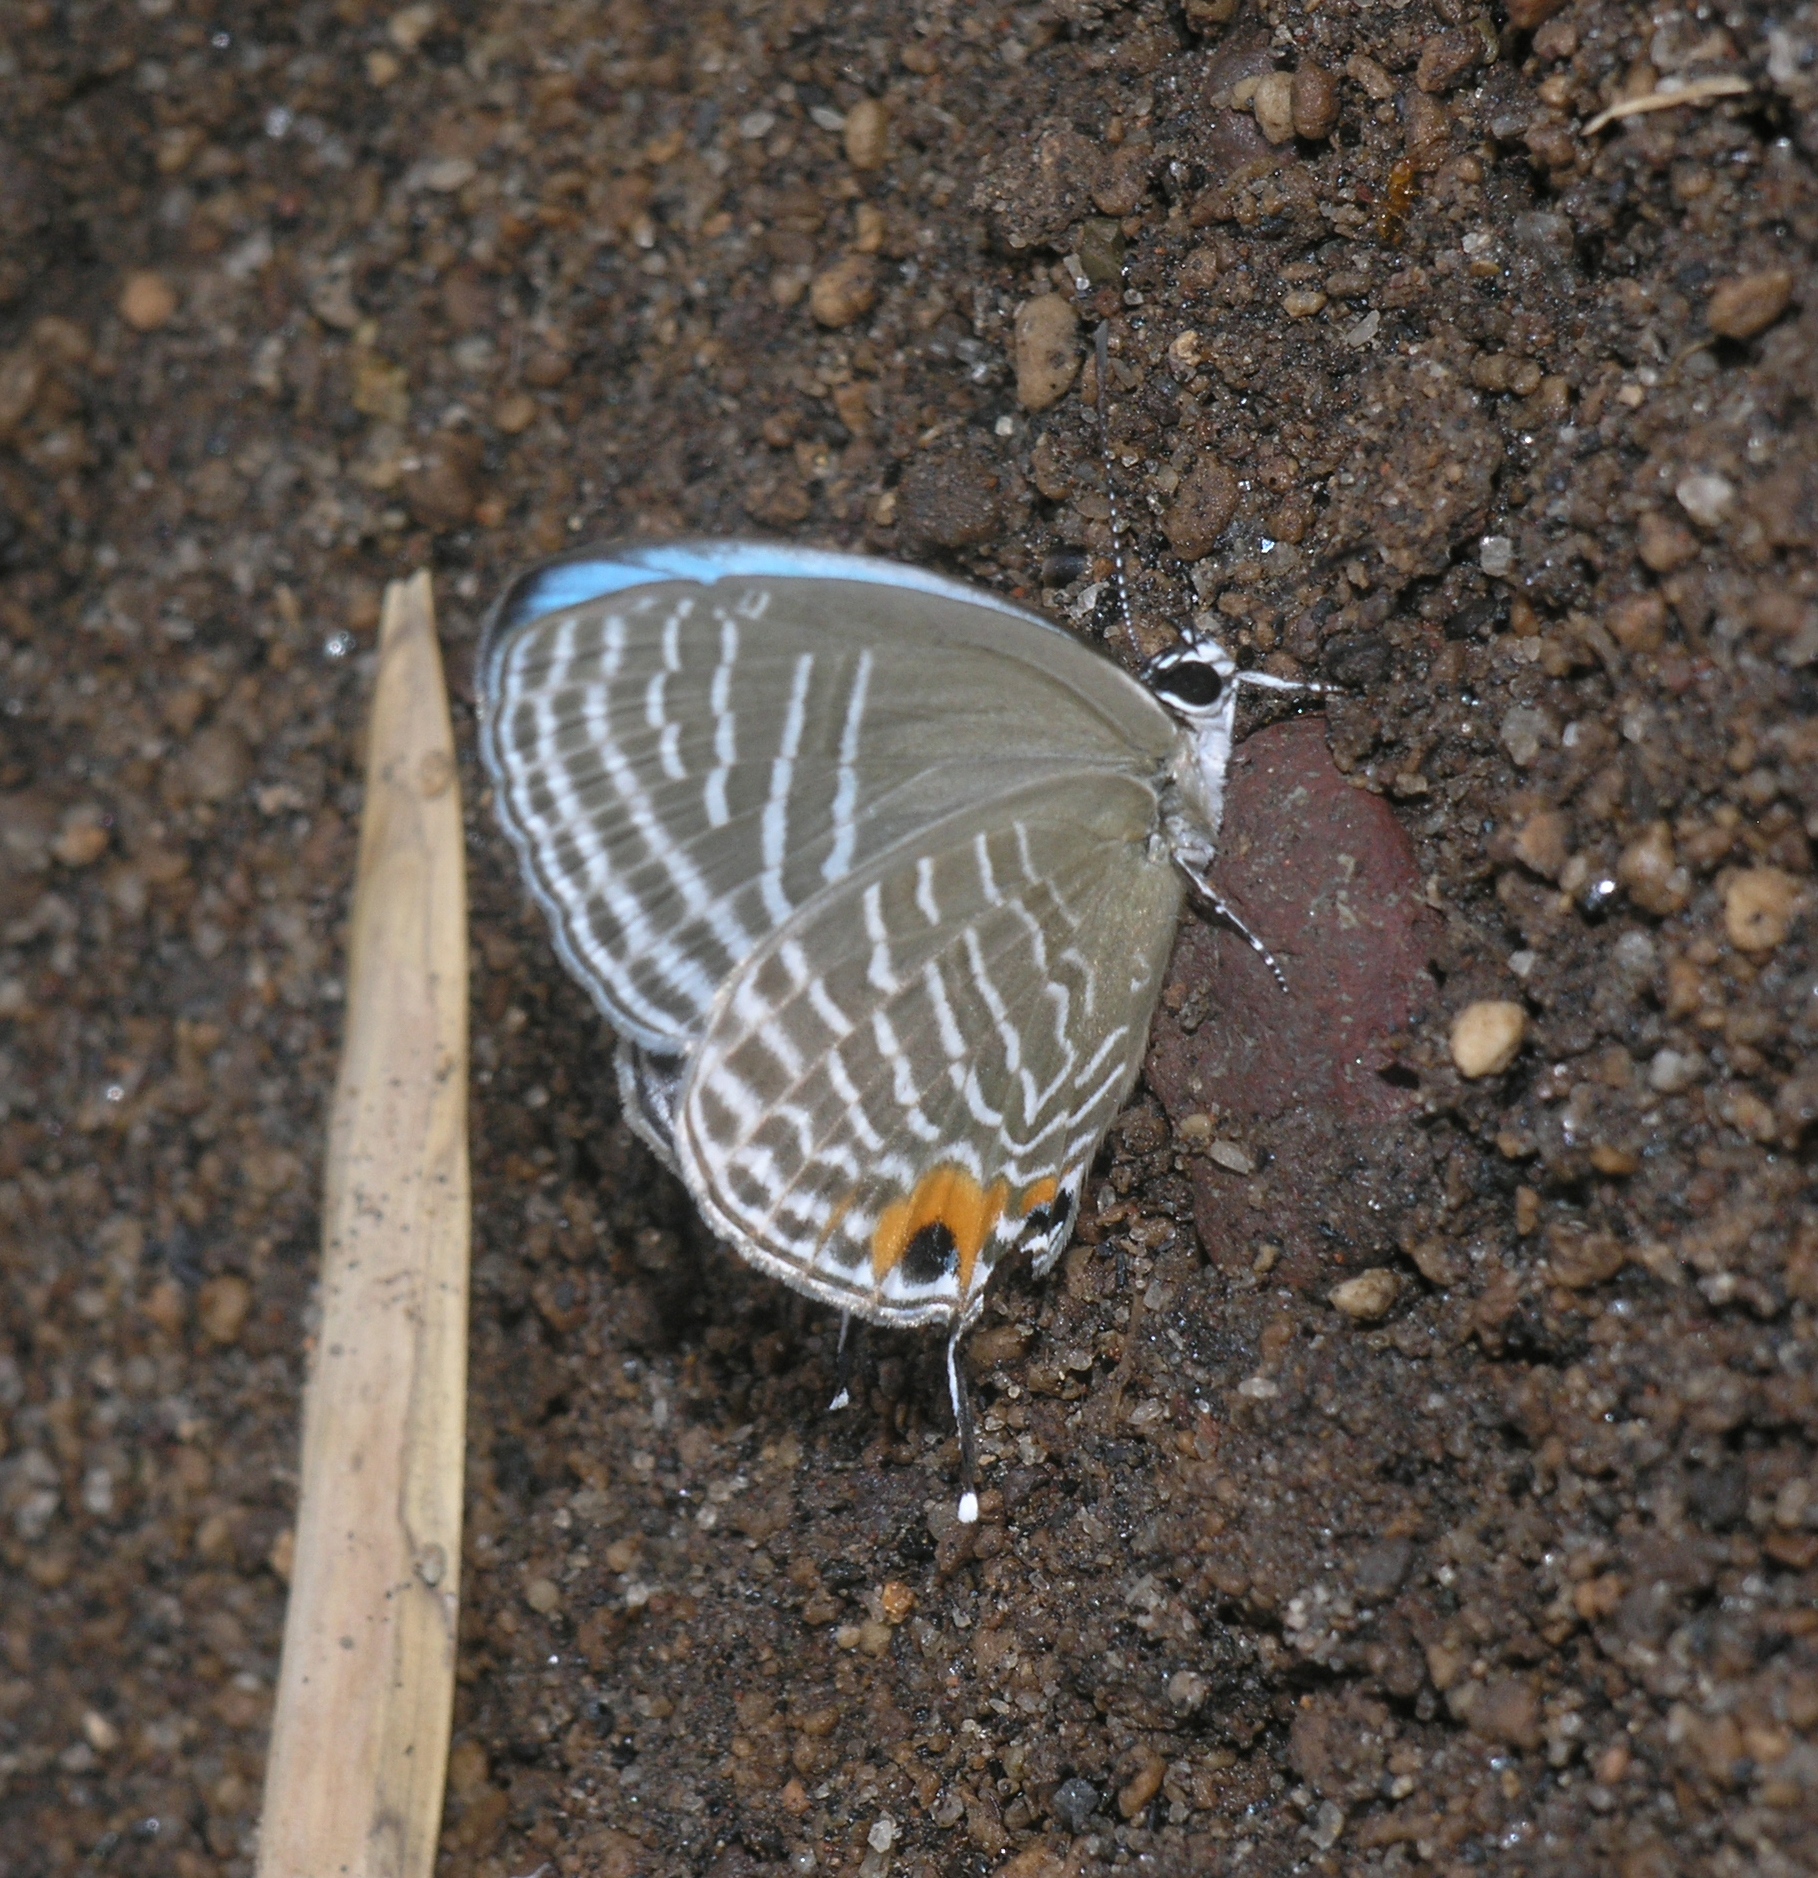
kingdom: Animalia
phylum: Arthropoda
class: Insecta
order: Lepidoptera
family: Lycaenidae
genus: Jamides
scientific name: Jamides alecto
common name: Metallic cerulean
